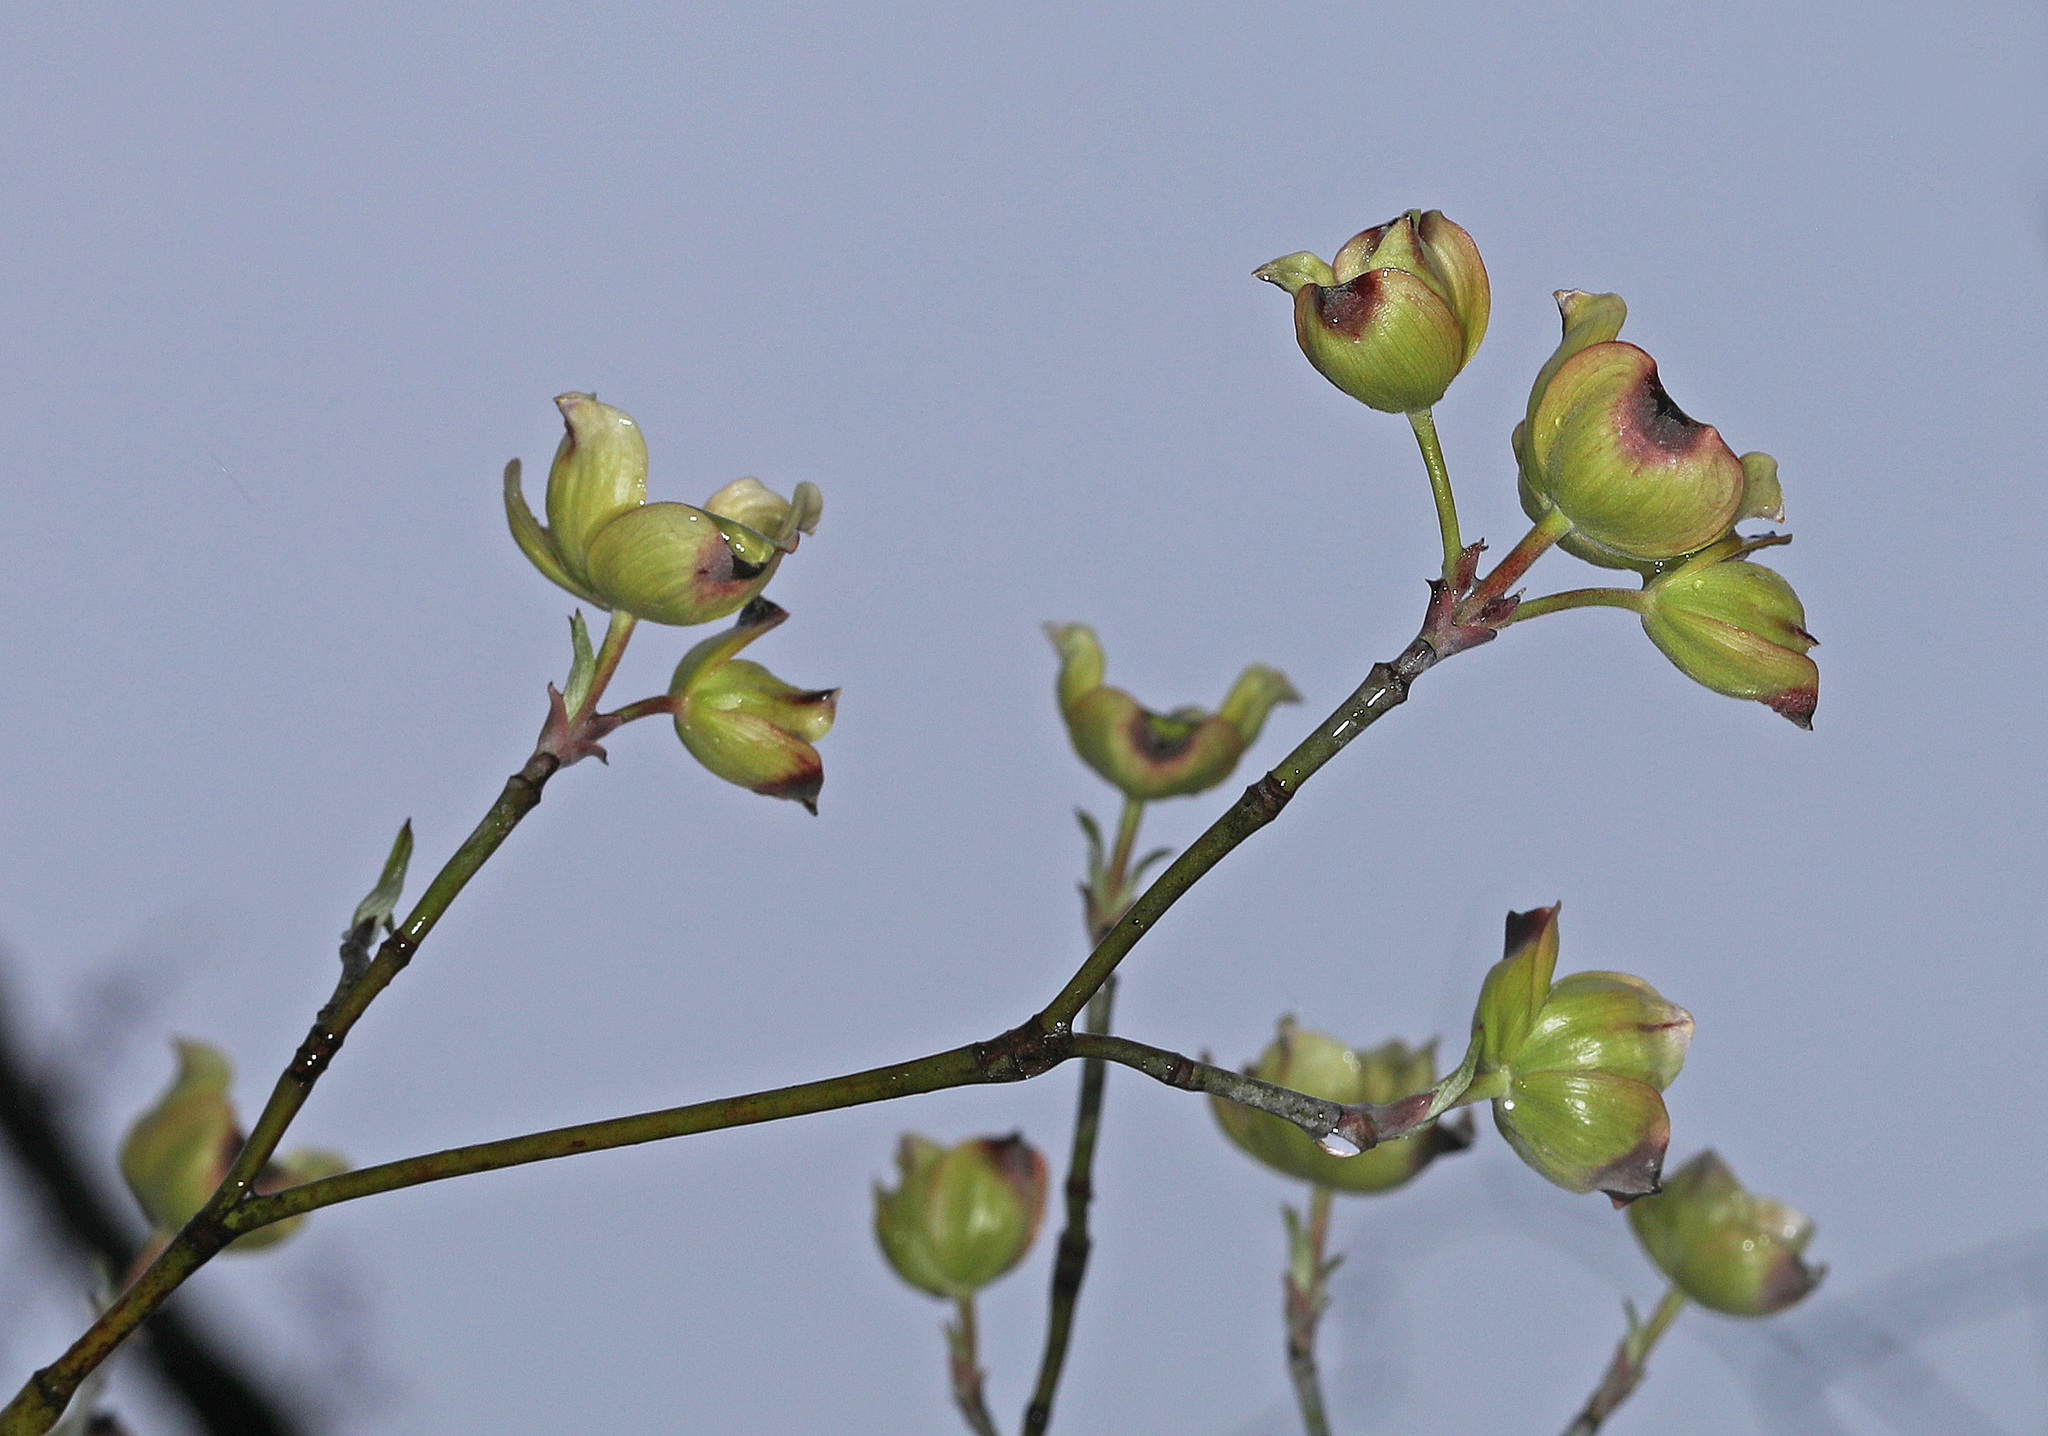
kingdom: Plantae
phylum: Tracheophyta
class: Magnoliopsida
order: Cornales
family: Cornaceae
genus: Cornus
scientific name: Cornus florida
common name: Flowering dogwood
